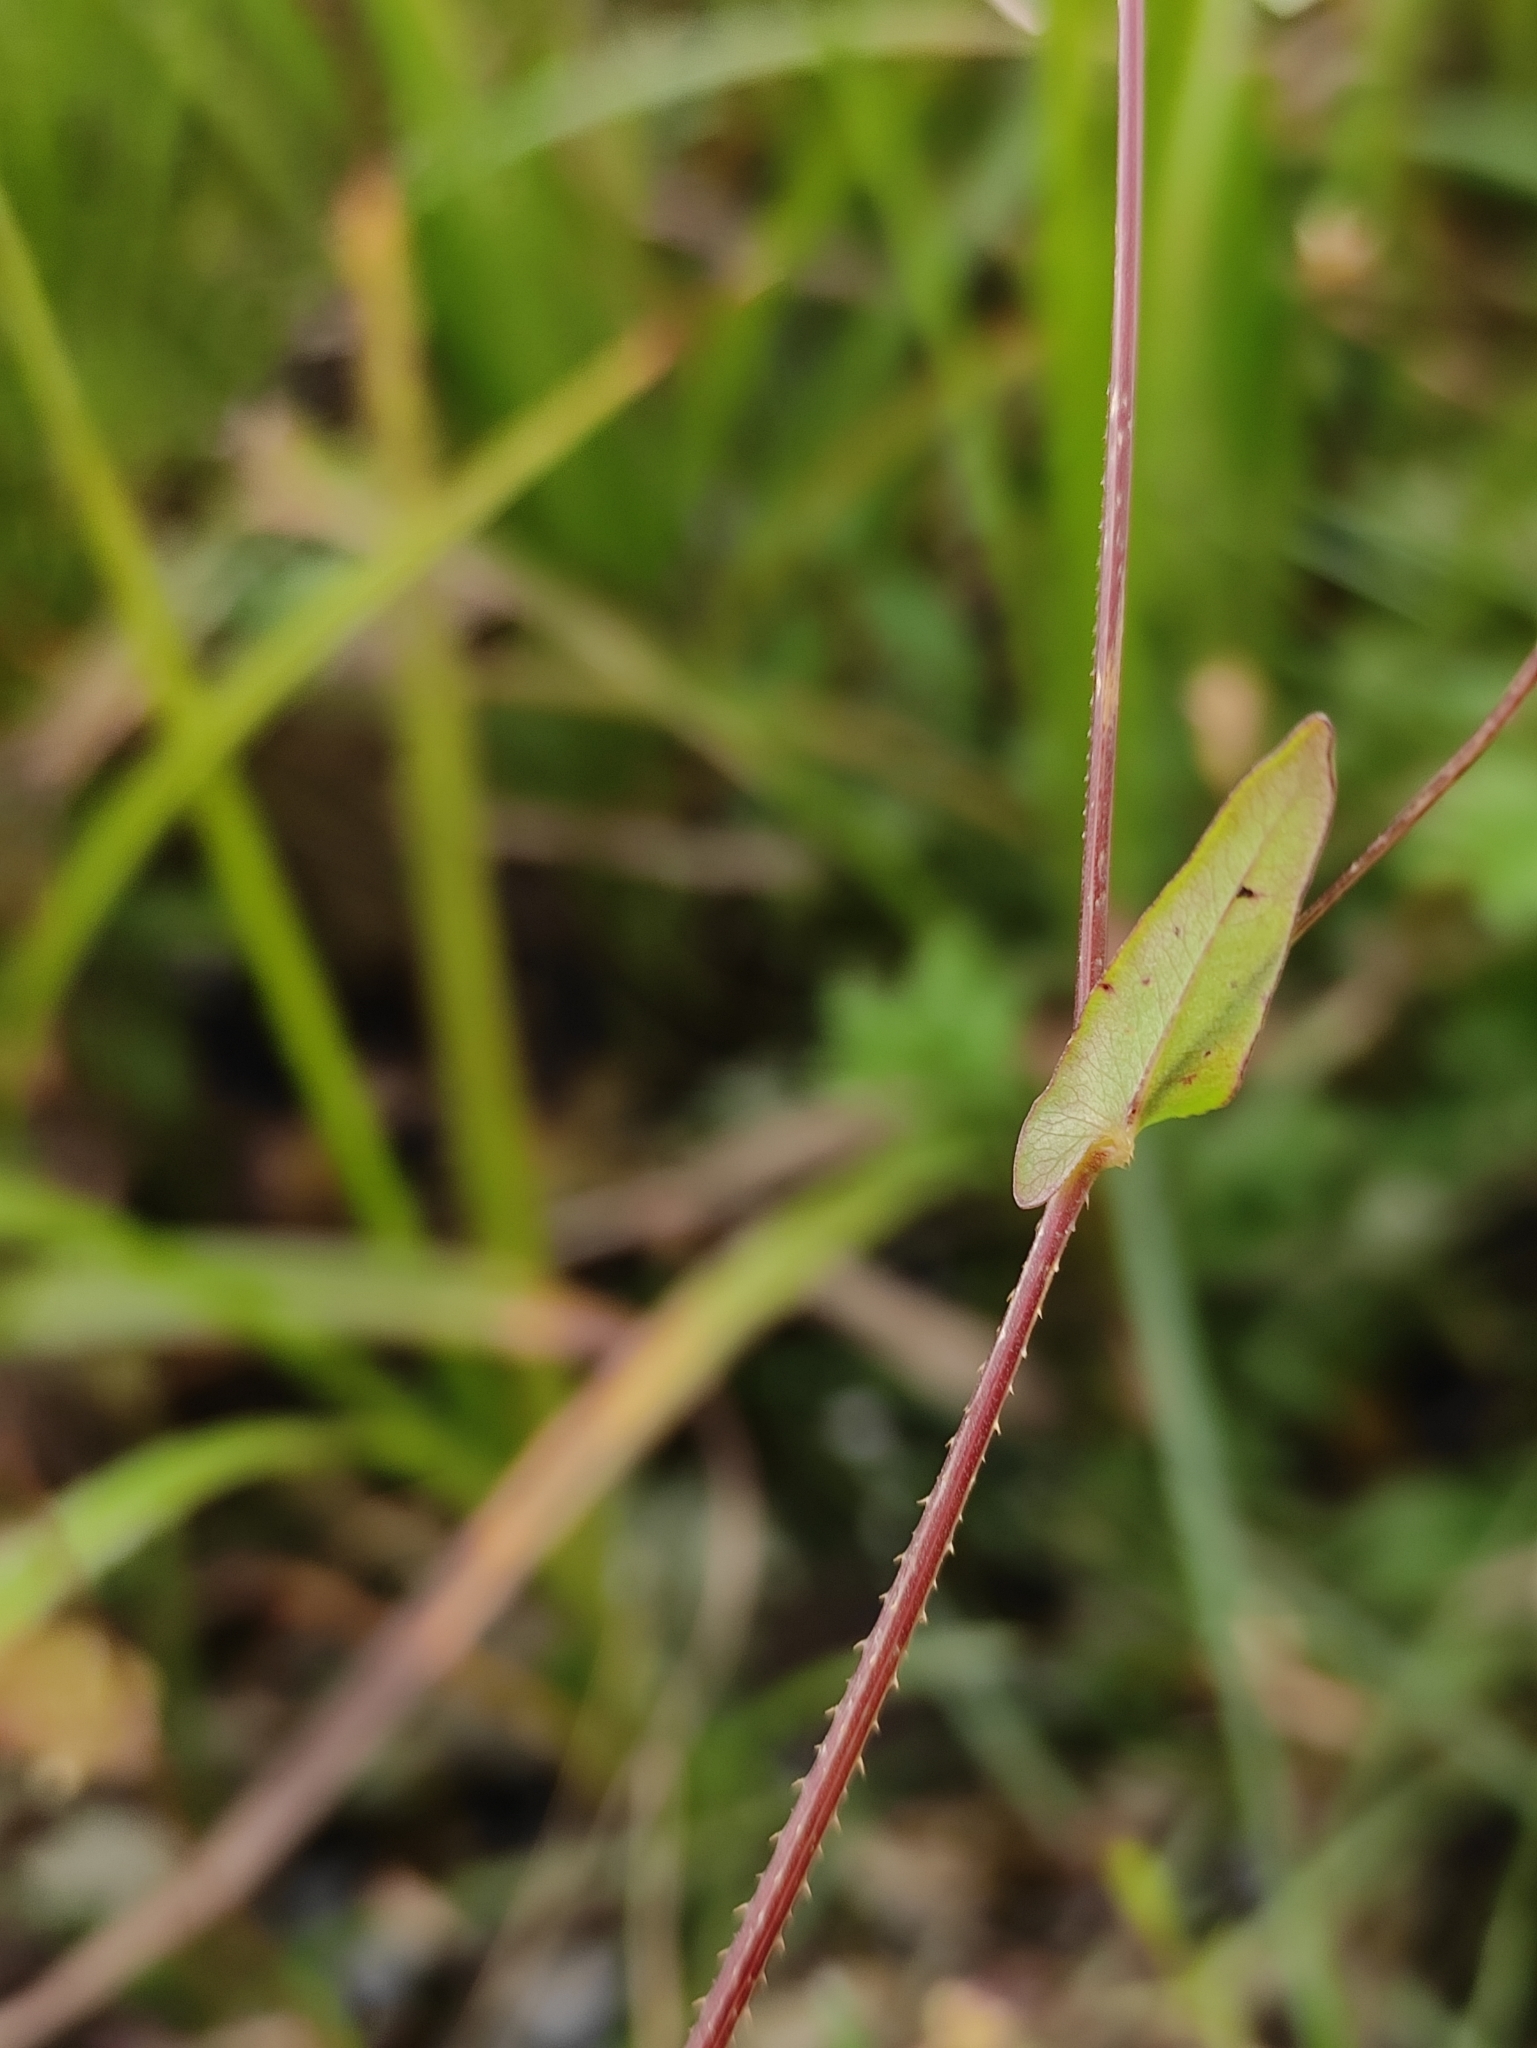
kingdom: Plantae
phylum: Tracheophyta
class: Magnoliopsida
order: Caryophyllales
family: Polygonaceae
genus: Persicaria
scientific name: Persicaria sagittata
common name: American tearthumb
